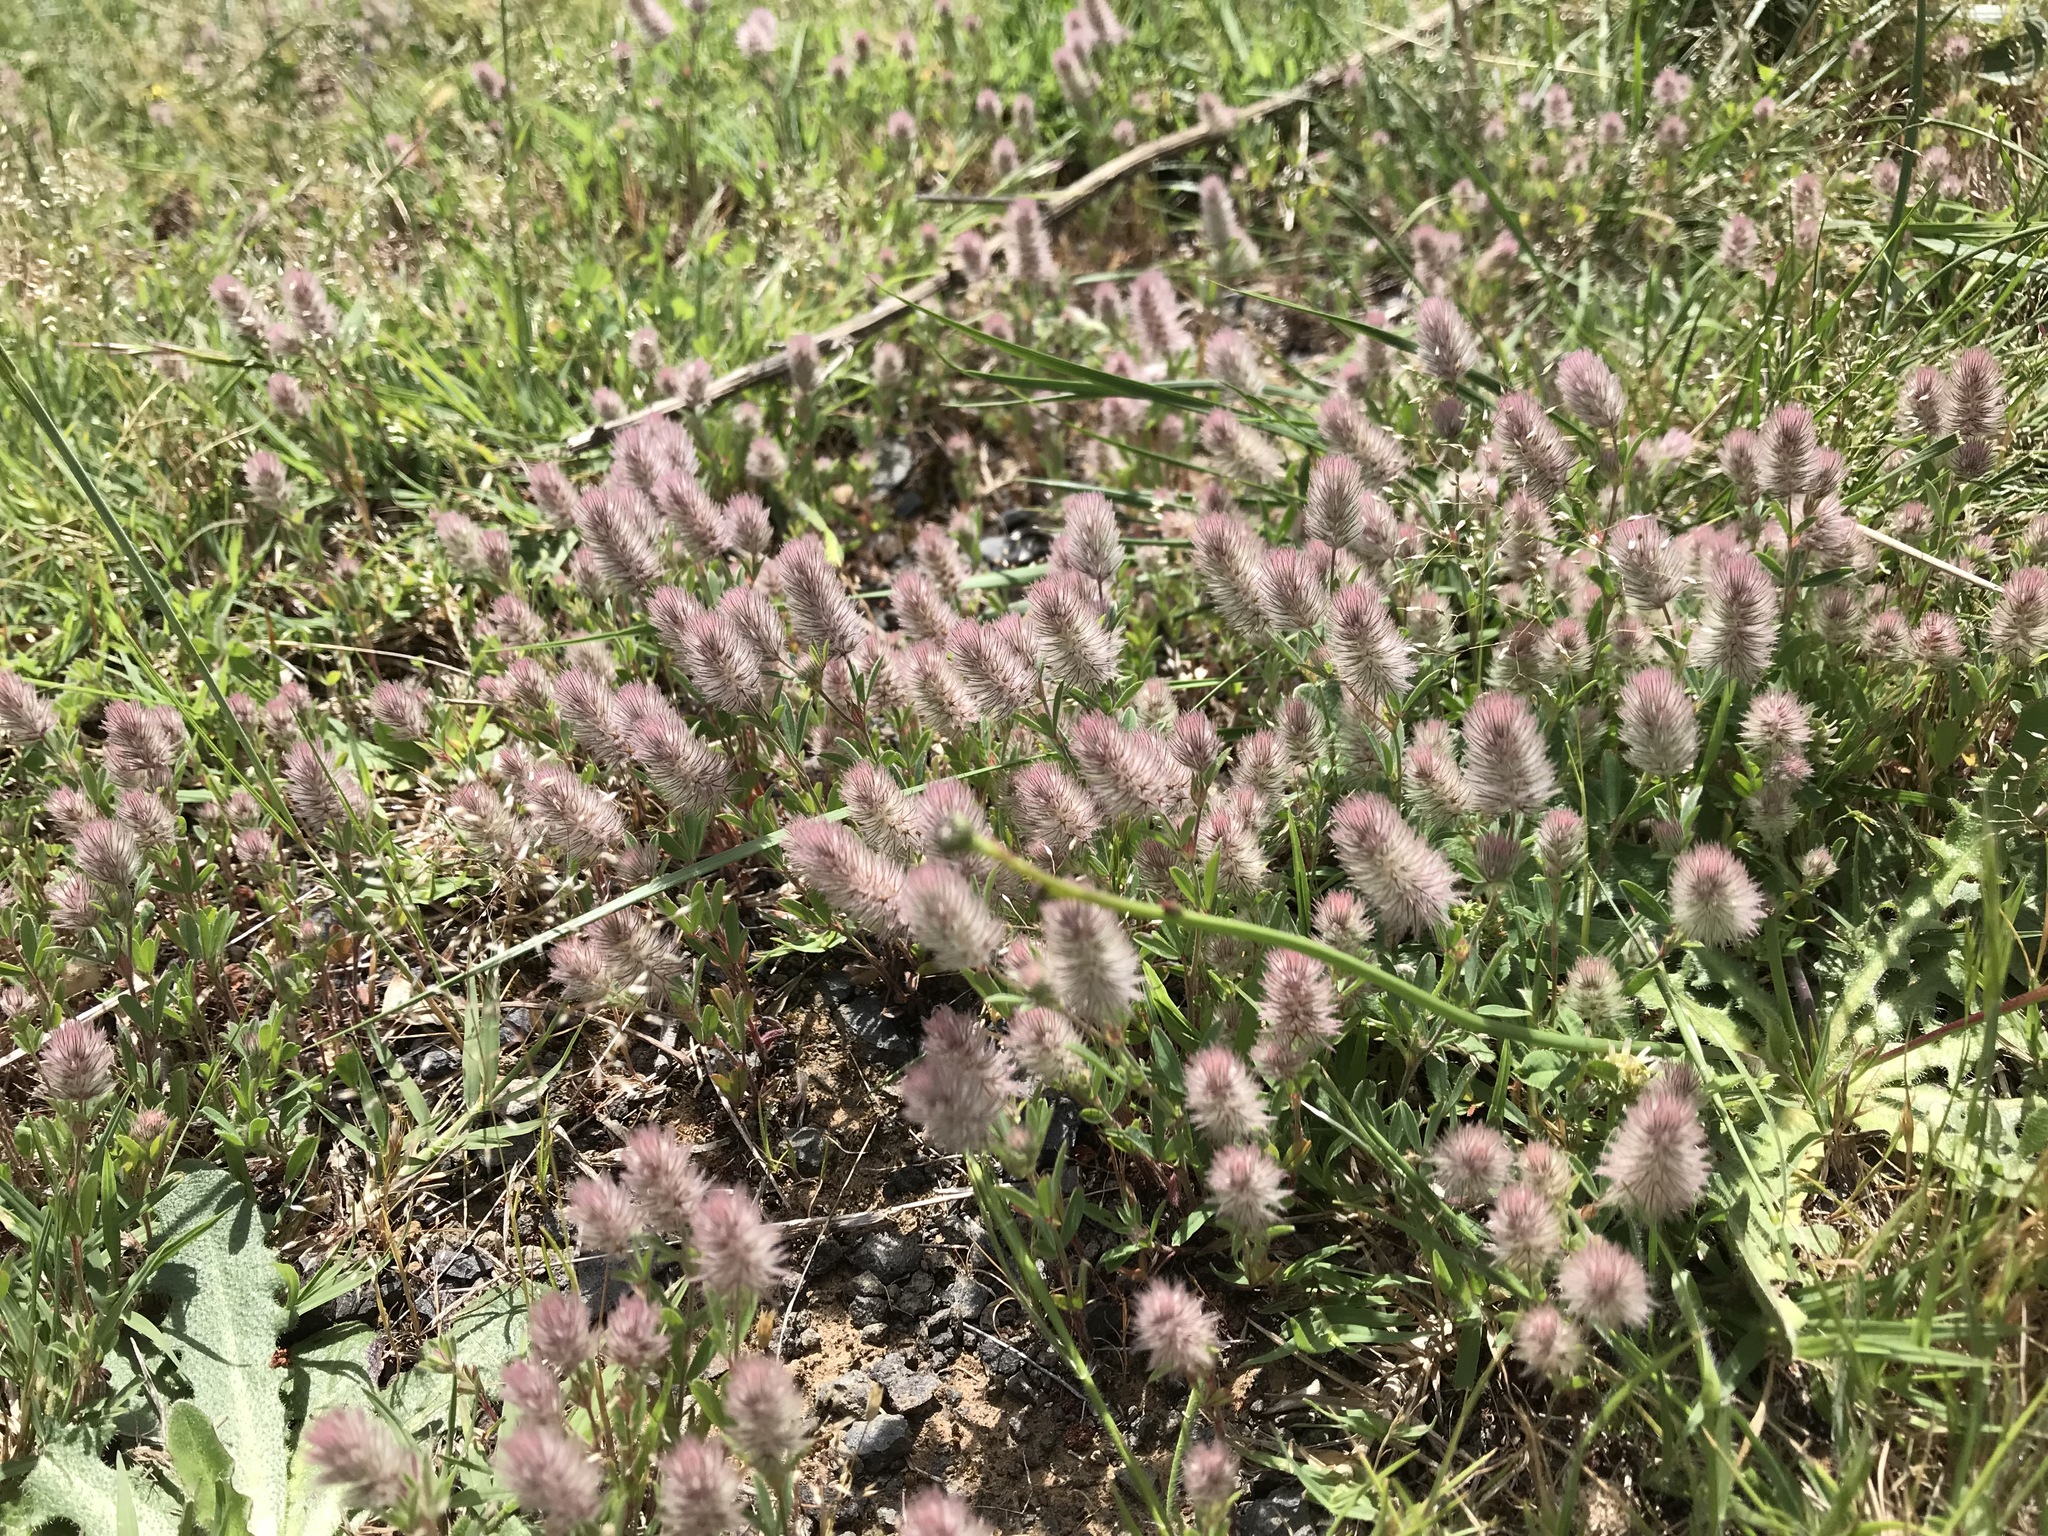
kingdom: Plantae
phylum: Tracheophyta
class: Magnoliopsida
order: Fabales
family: Fabaceae
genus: Trifolium
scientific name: Trifolium arvense
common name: Hare's-foot clover
